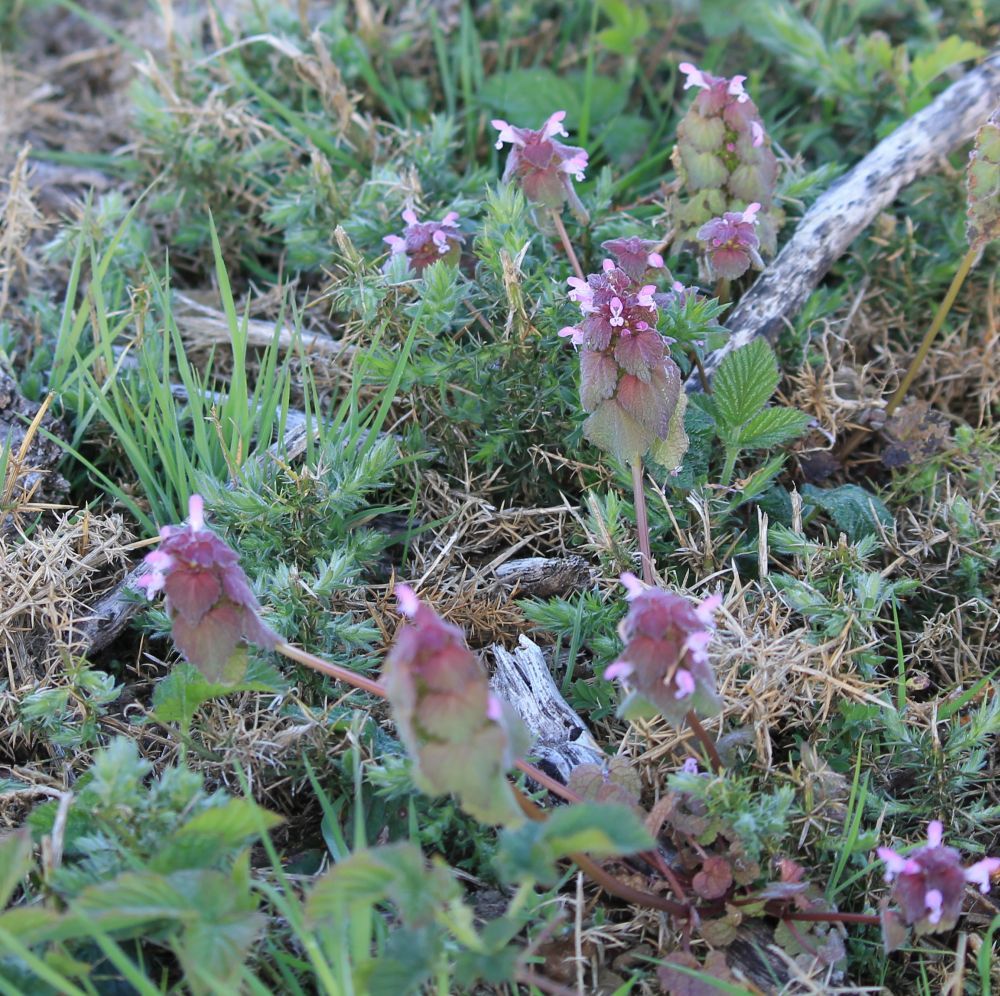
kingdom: Plantae
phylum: Tracheophyta
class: Magnoliopsida
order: Lamiales
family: Lamiaceae
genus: Lamium
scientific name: Lamium purpureum
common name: Red dead-nettle
